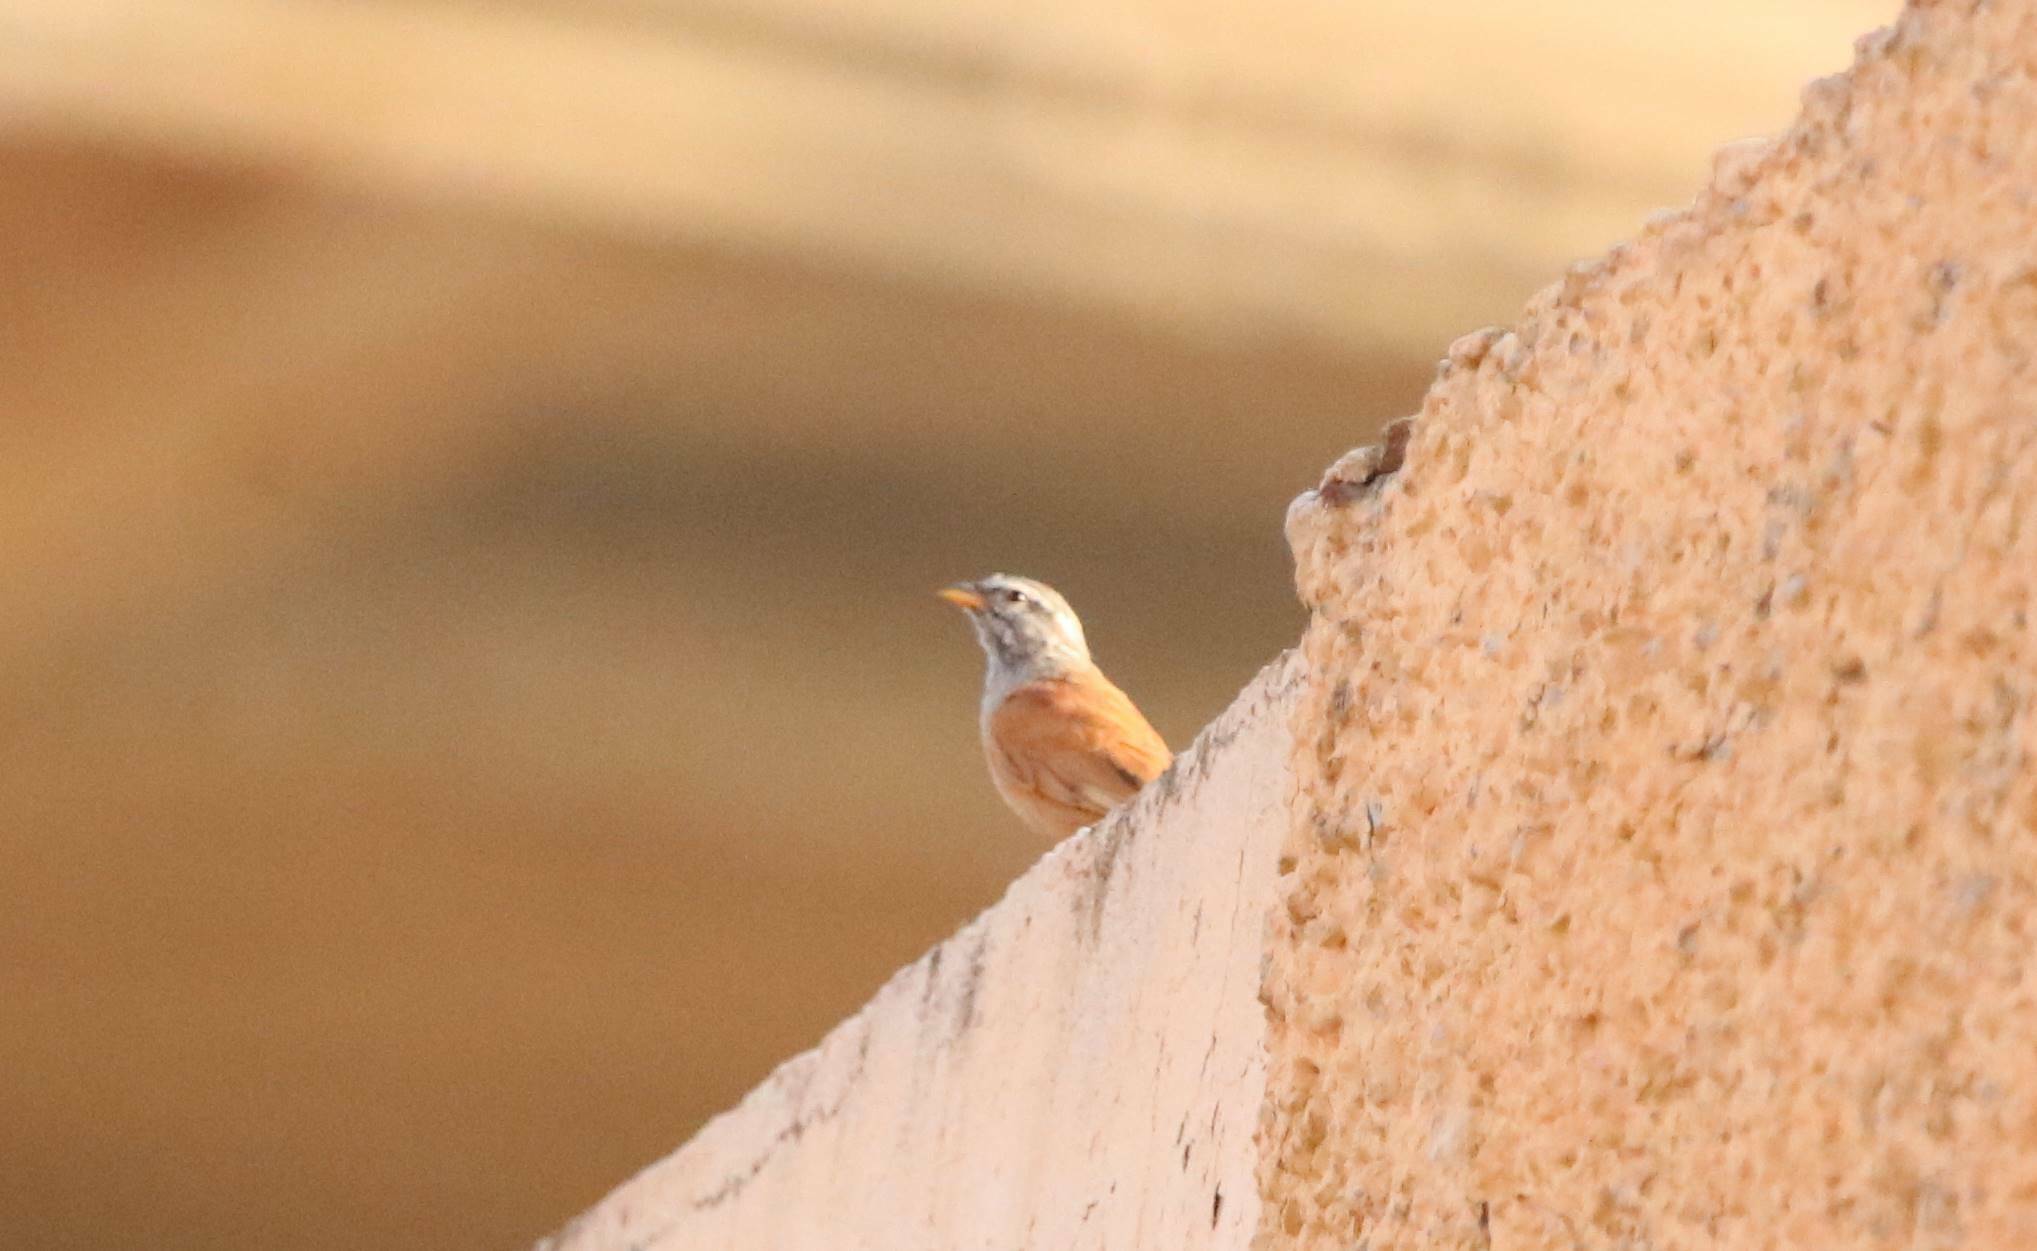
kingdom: Animalia
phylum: Chordata
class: Aves
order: Passeriformes
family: Emberizidae
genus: Emberiza
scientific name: Emberiza sahari
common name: House bunting
